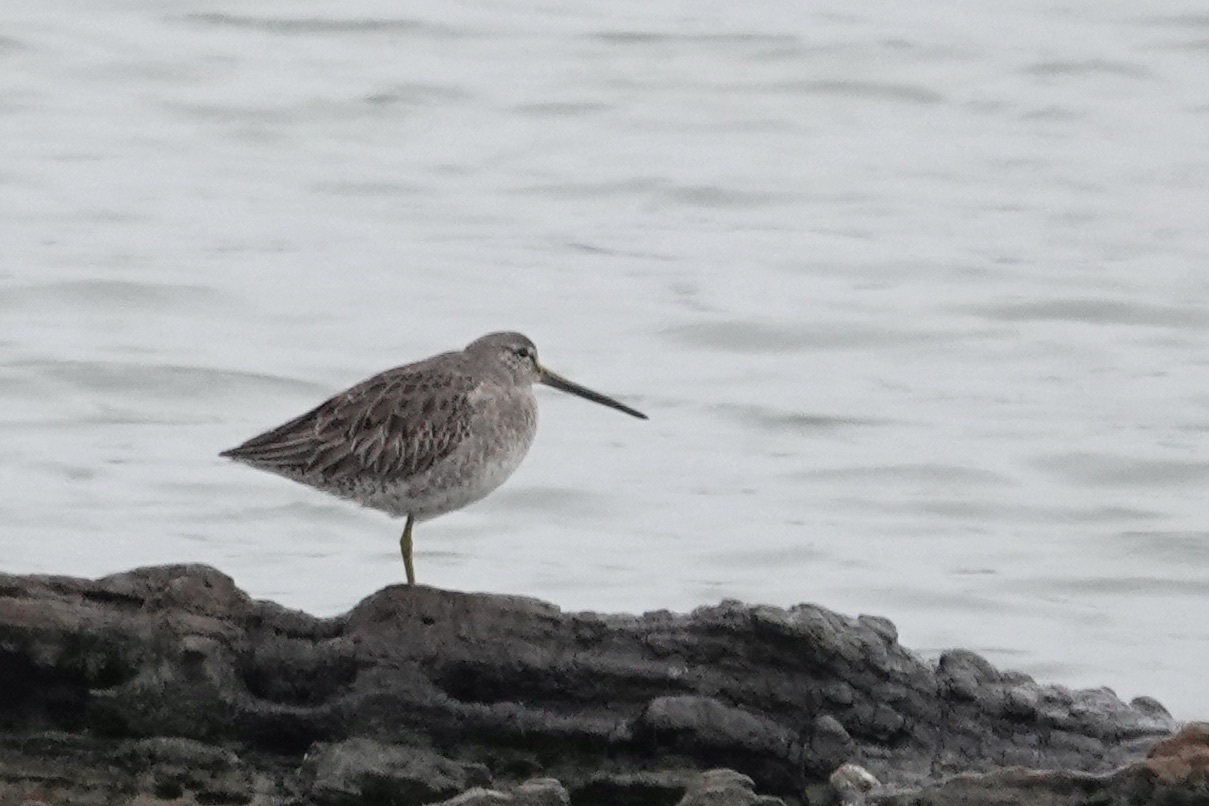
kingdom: Animalia
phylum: Chordata
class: Aves
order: Charadriiformes
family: Scolopacidae
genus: Limnodromus
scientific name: Limnodromus scolopaceus
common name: Long-billed dowitcher
